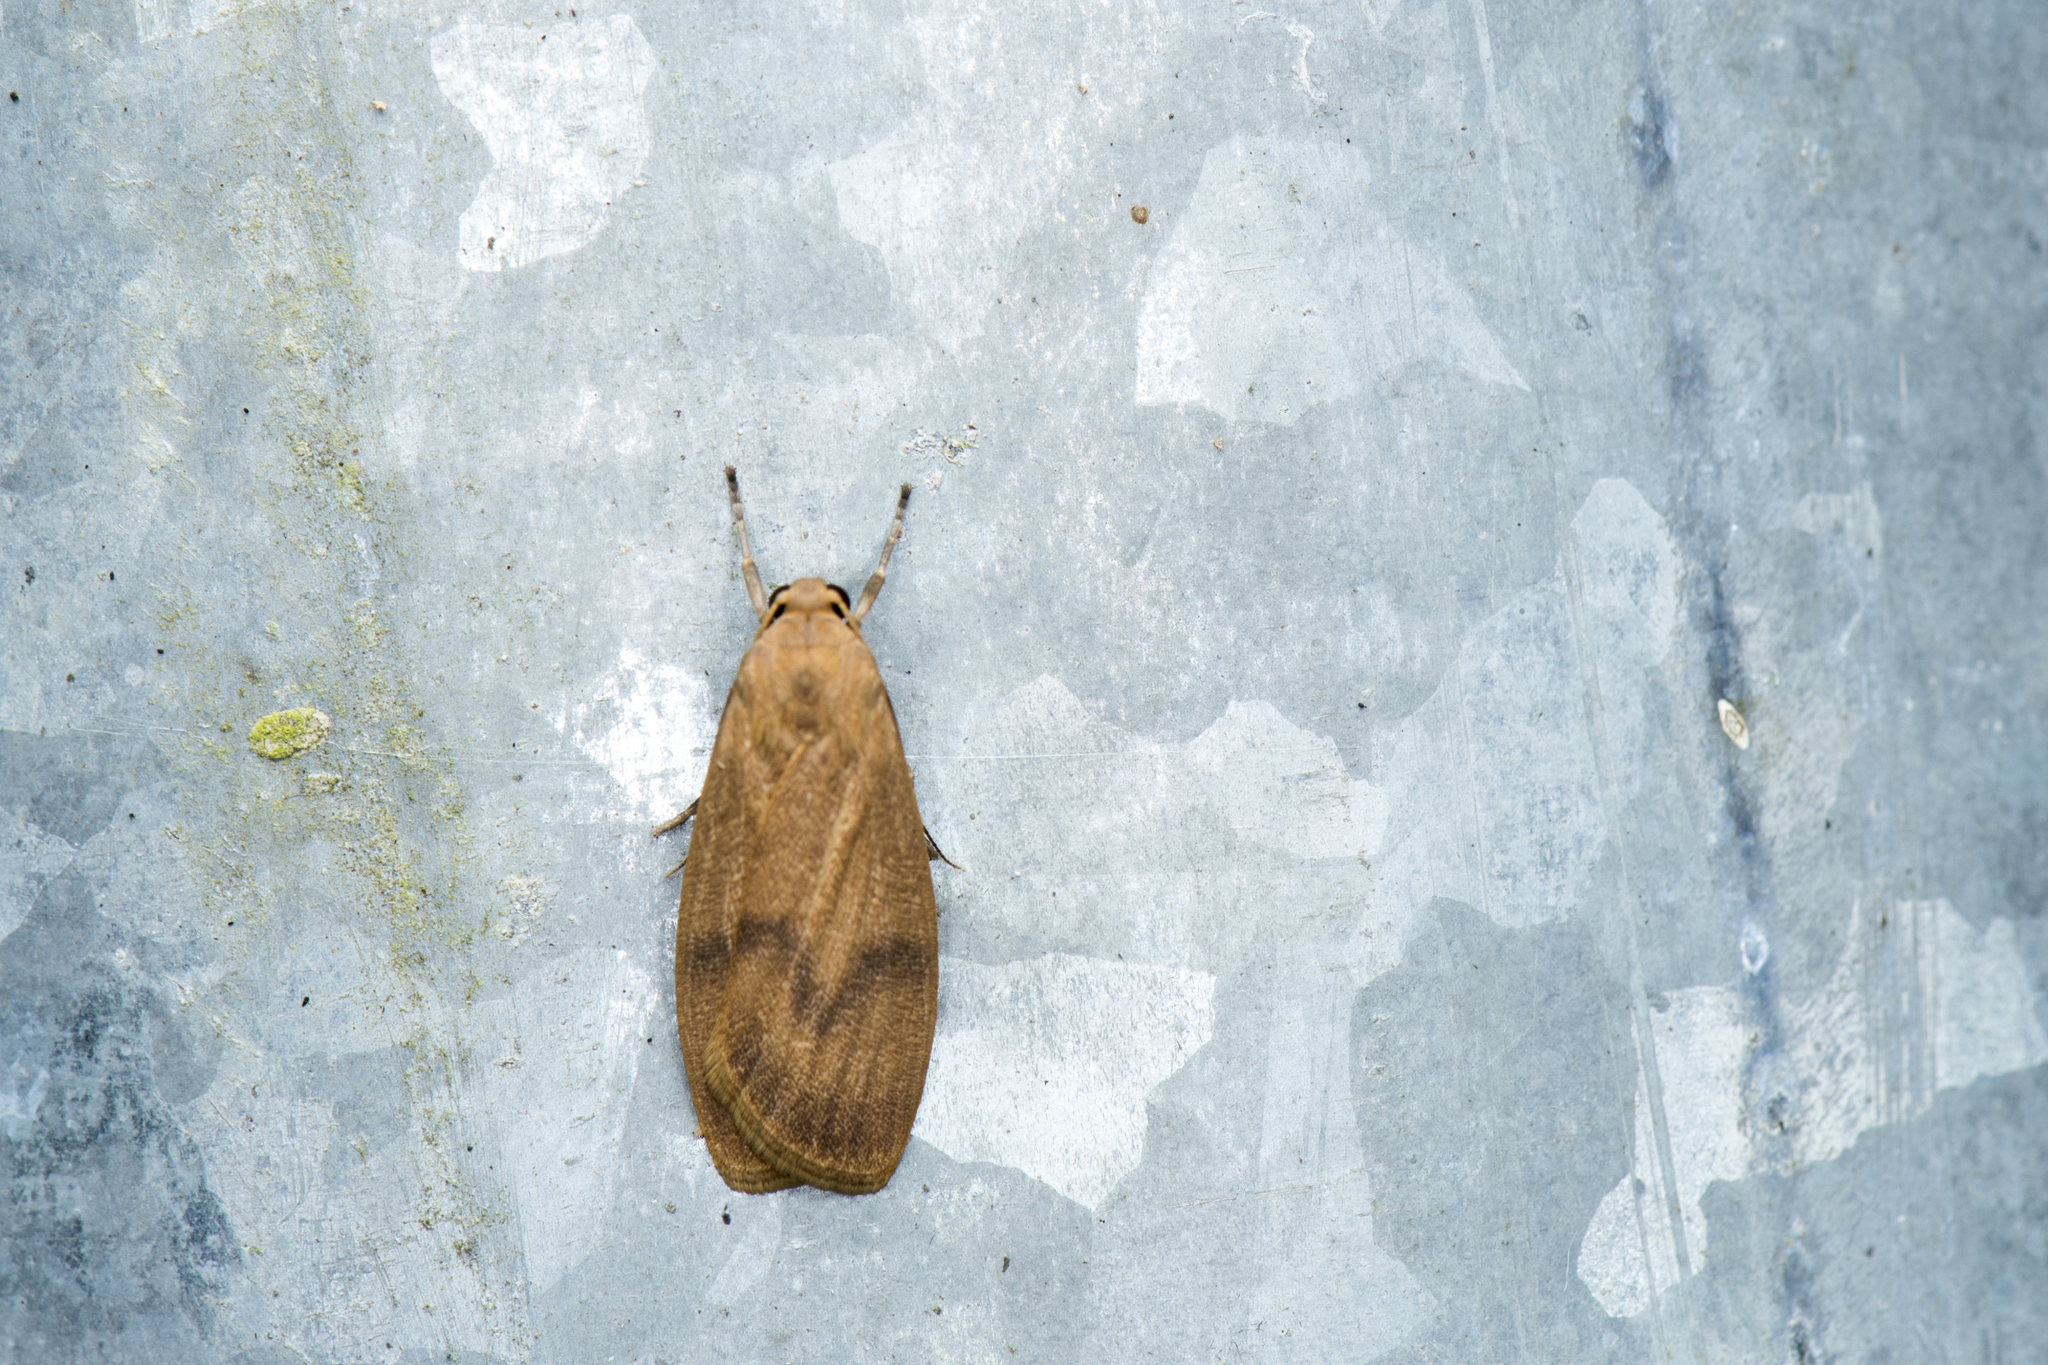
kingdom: Animalia
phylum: Arthropoda
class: Insecta
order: Lepidoptera
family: Erebidae
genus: Teuloma
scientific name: Teuloma tainebula
